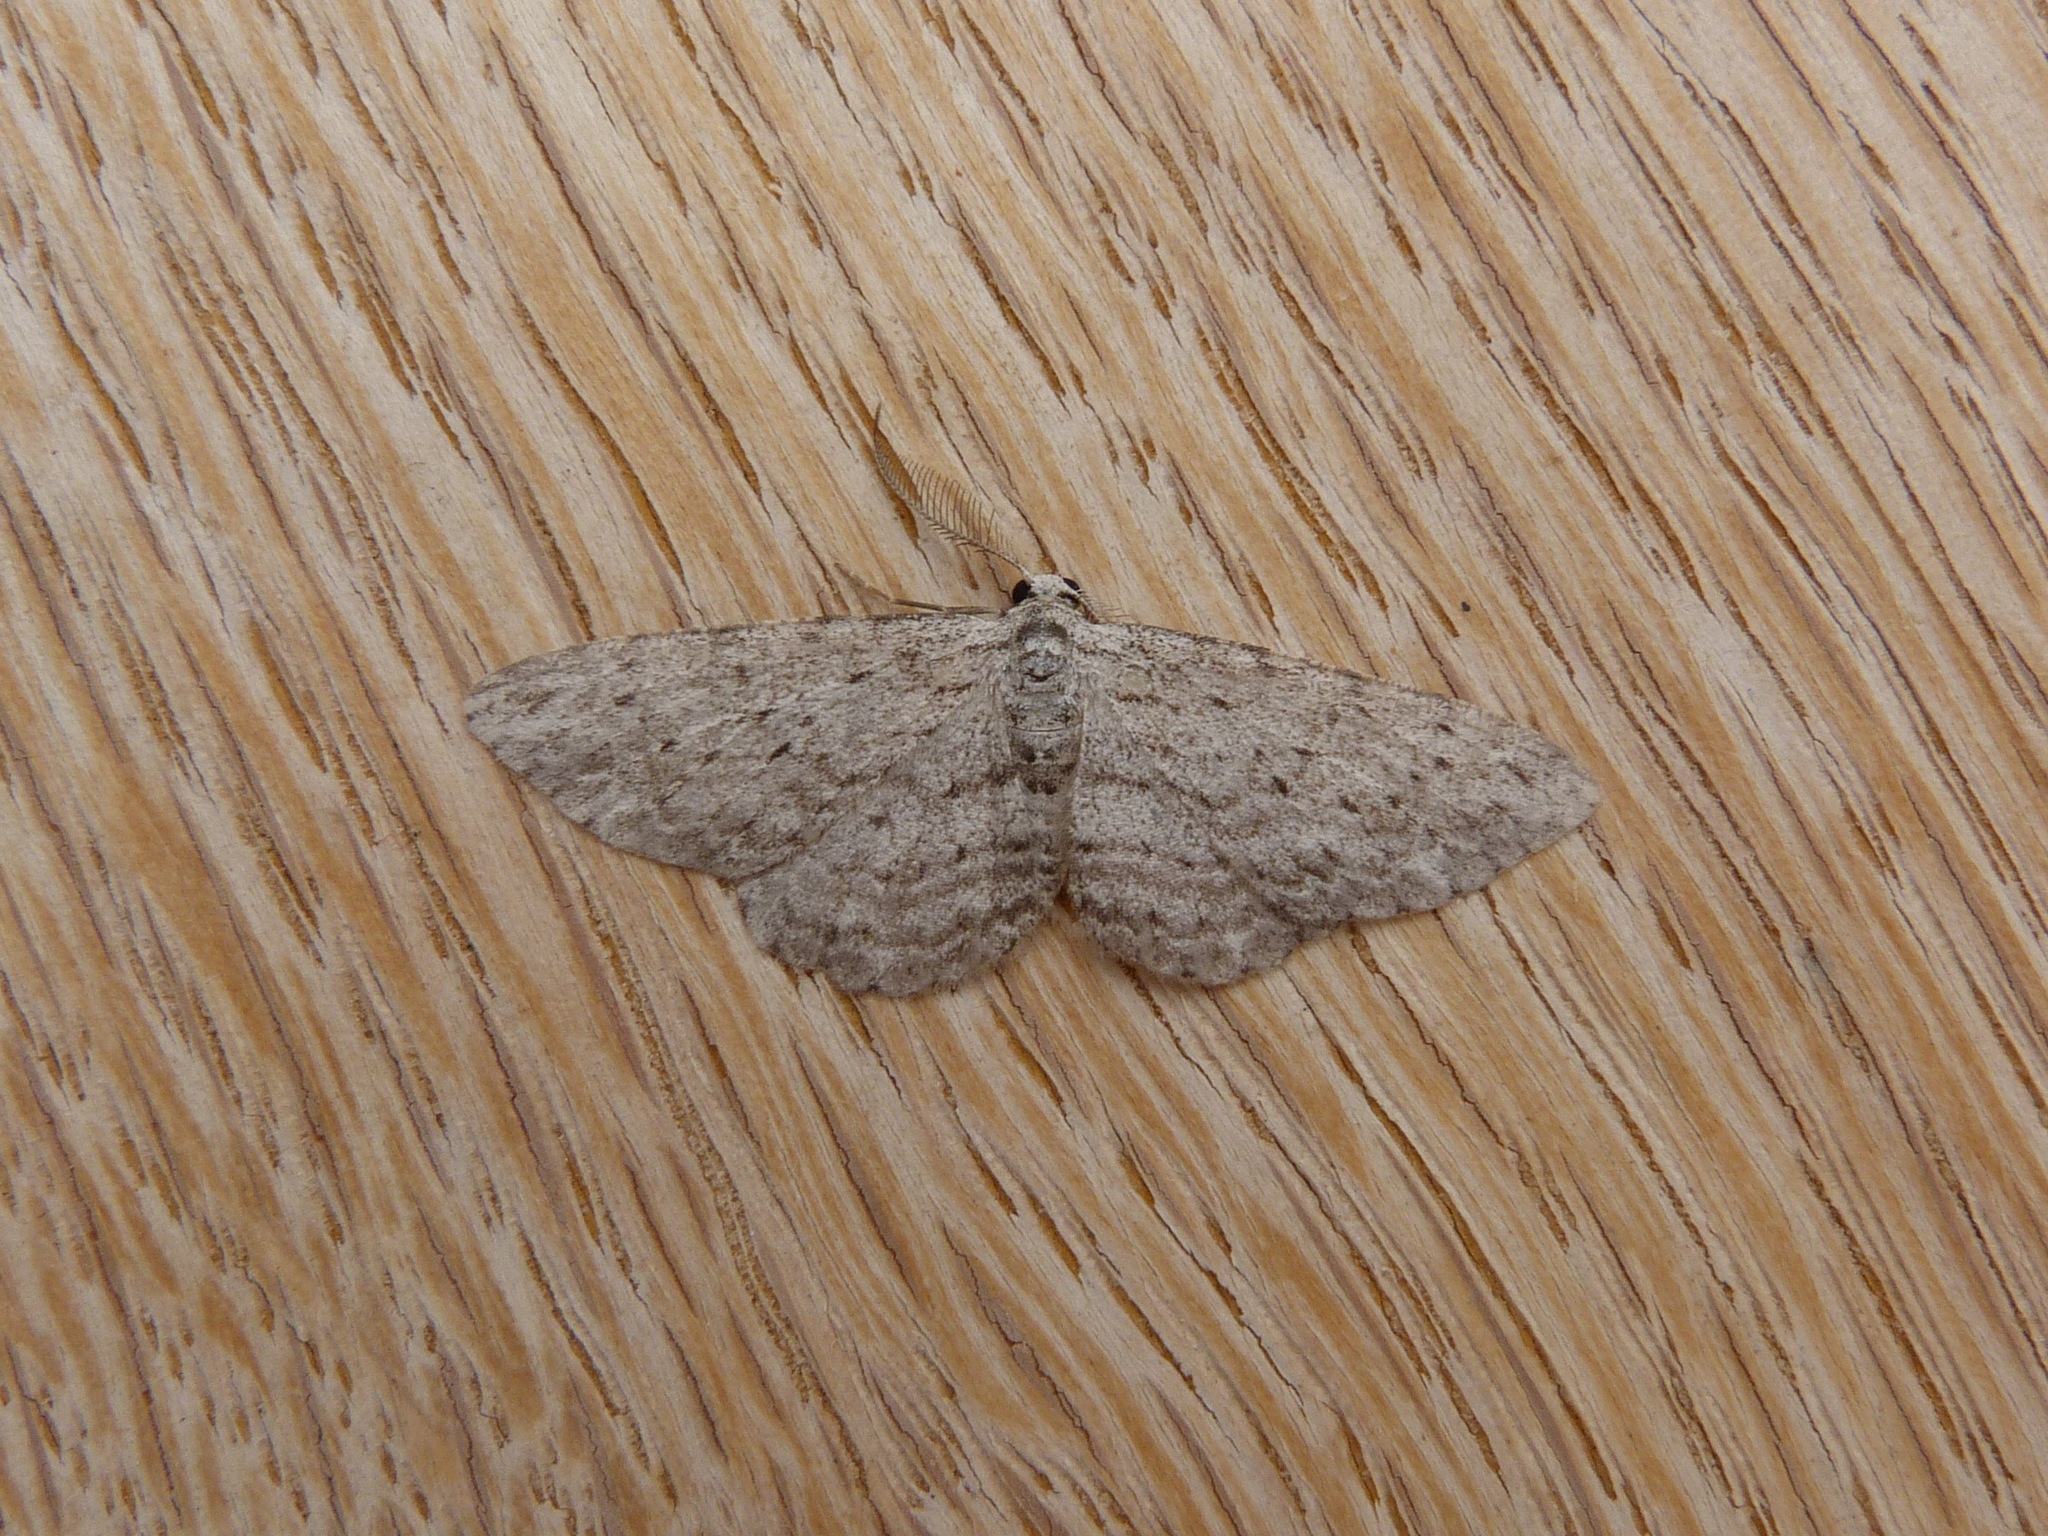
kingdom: Animalia
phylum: Arthropoda
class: Insecta
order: Lepidoptera
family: Geometridae
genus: Phelotis
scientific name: Phelotis cognata
